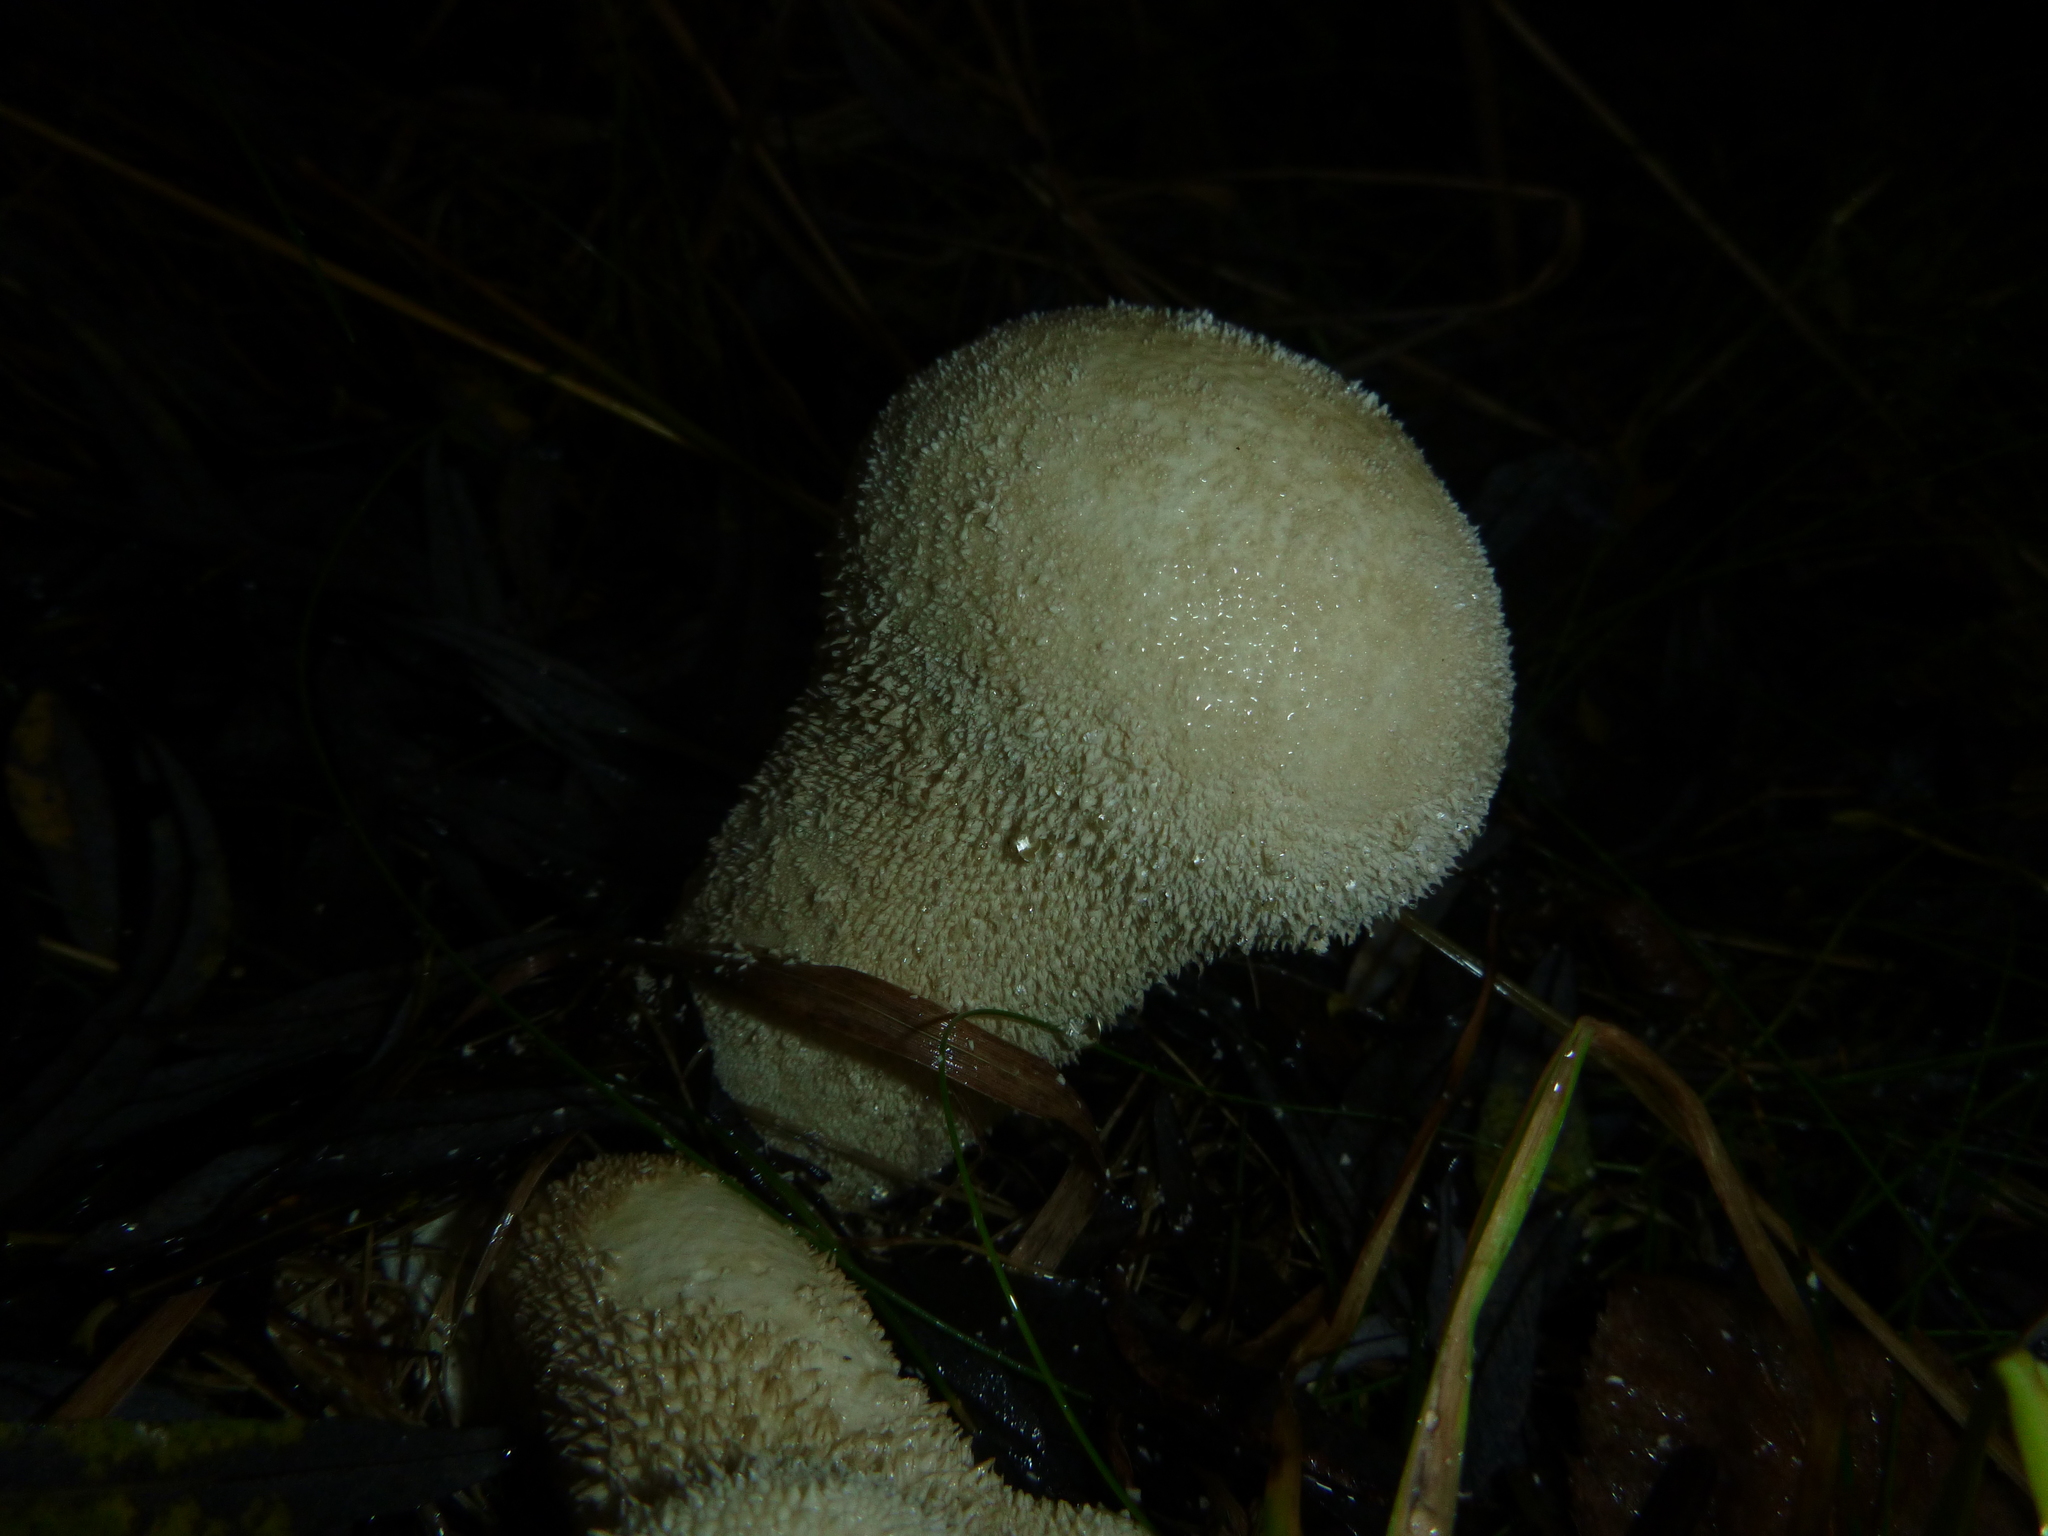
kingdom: Fungi
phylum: Basidiomycota
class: Agaricomycetes
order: Agaricales
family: Lycoperdaceae
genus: Lycoperdon
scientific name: Lycoperdon excipuliforme
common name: Pestle puffball
